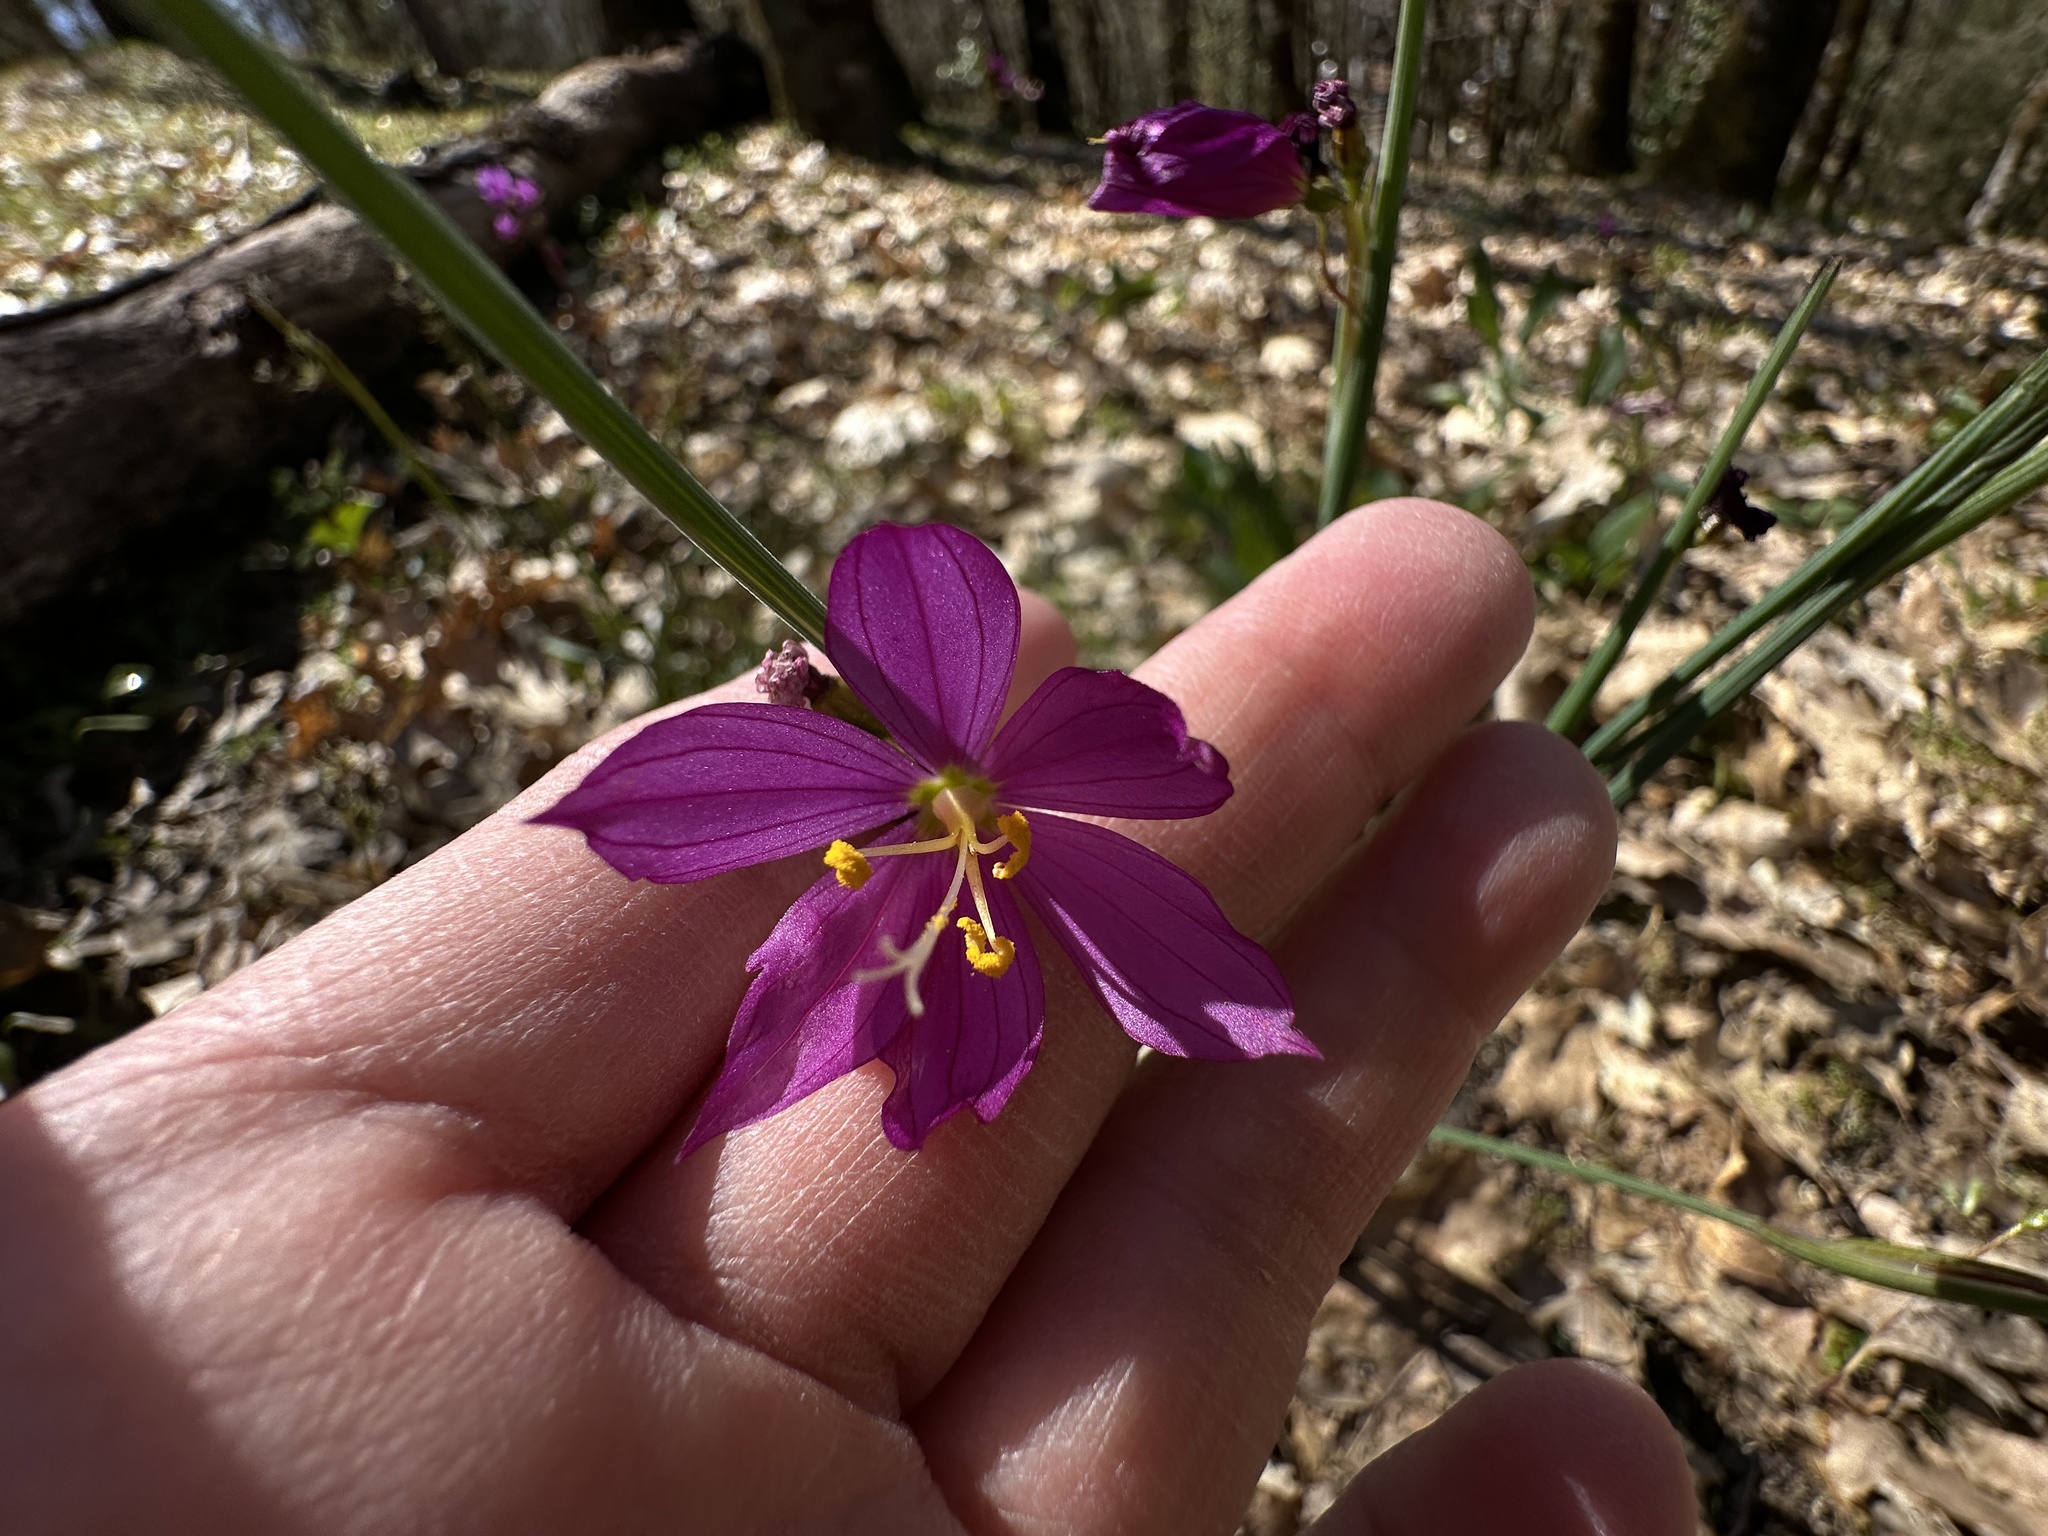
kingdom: Plantae
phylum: Tracheophyta
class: Liliopsida
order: Asparagales
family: Iridaceae
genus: Olsynium
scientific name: Olsynium douglasii
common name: Douglas' grasswidow
